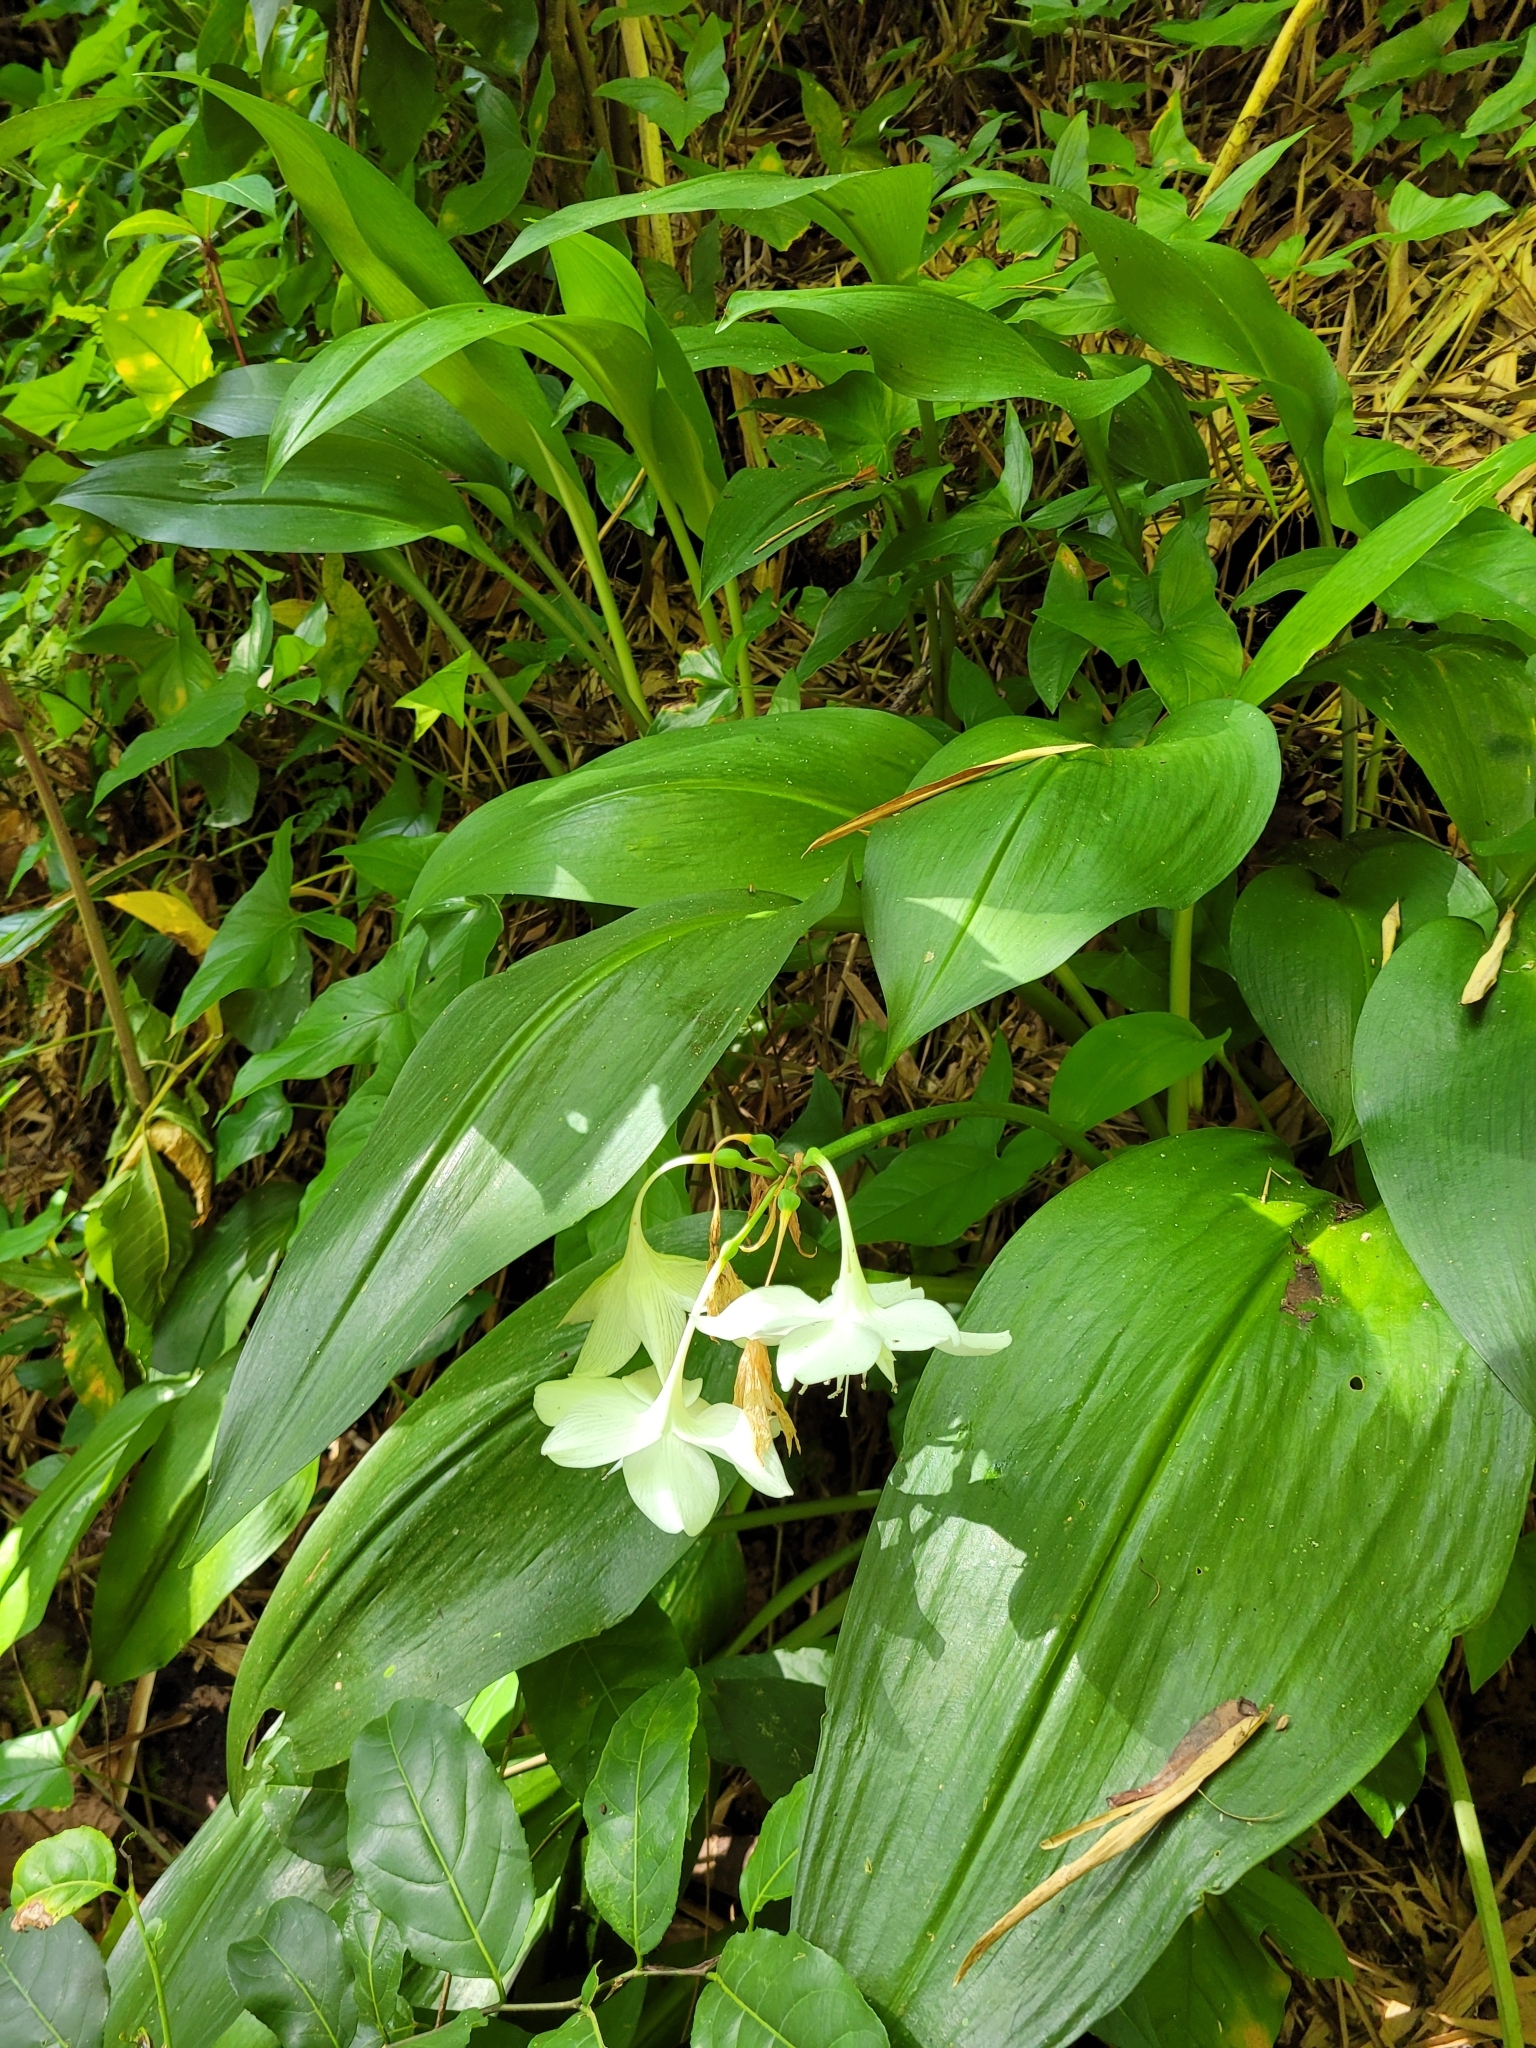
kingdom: Plantae
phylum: Tracheophyta
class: Liliopsida
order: Asparagales
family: Amaryllidaceae
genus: Urceolina
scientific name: Urceolina amazonica
